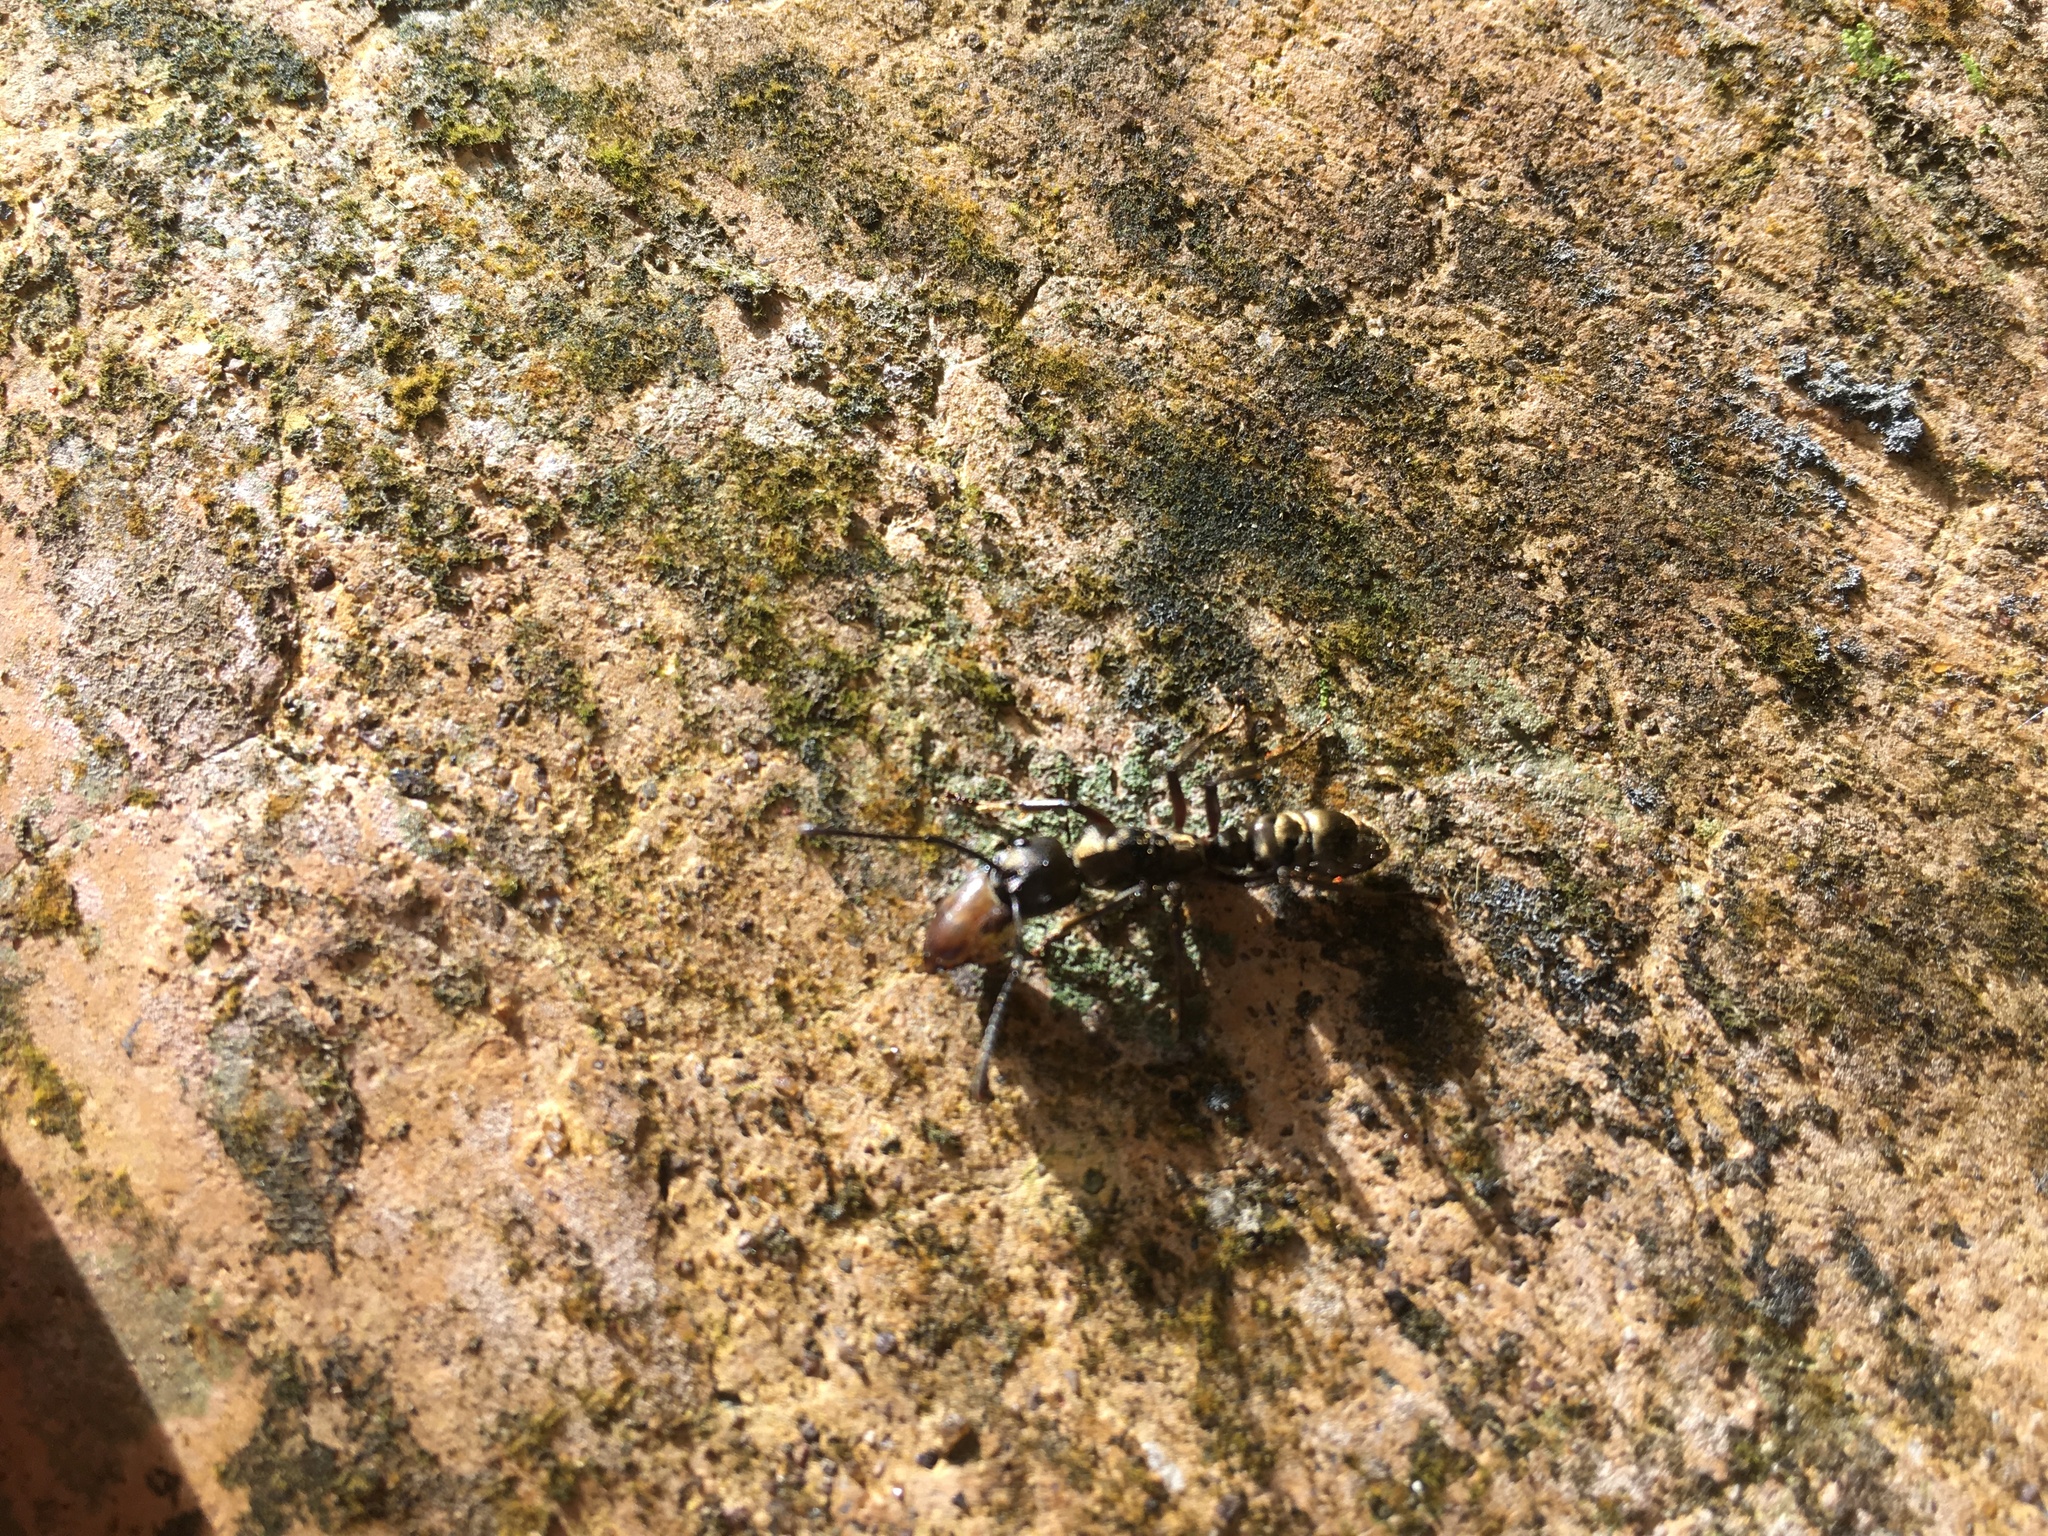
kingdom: Animalia
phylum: Arthropoda
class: Insecta
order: Hymenoptera
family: Formicidae
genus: Pachycondyla
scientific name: Pachycondyla villosa
